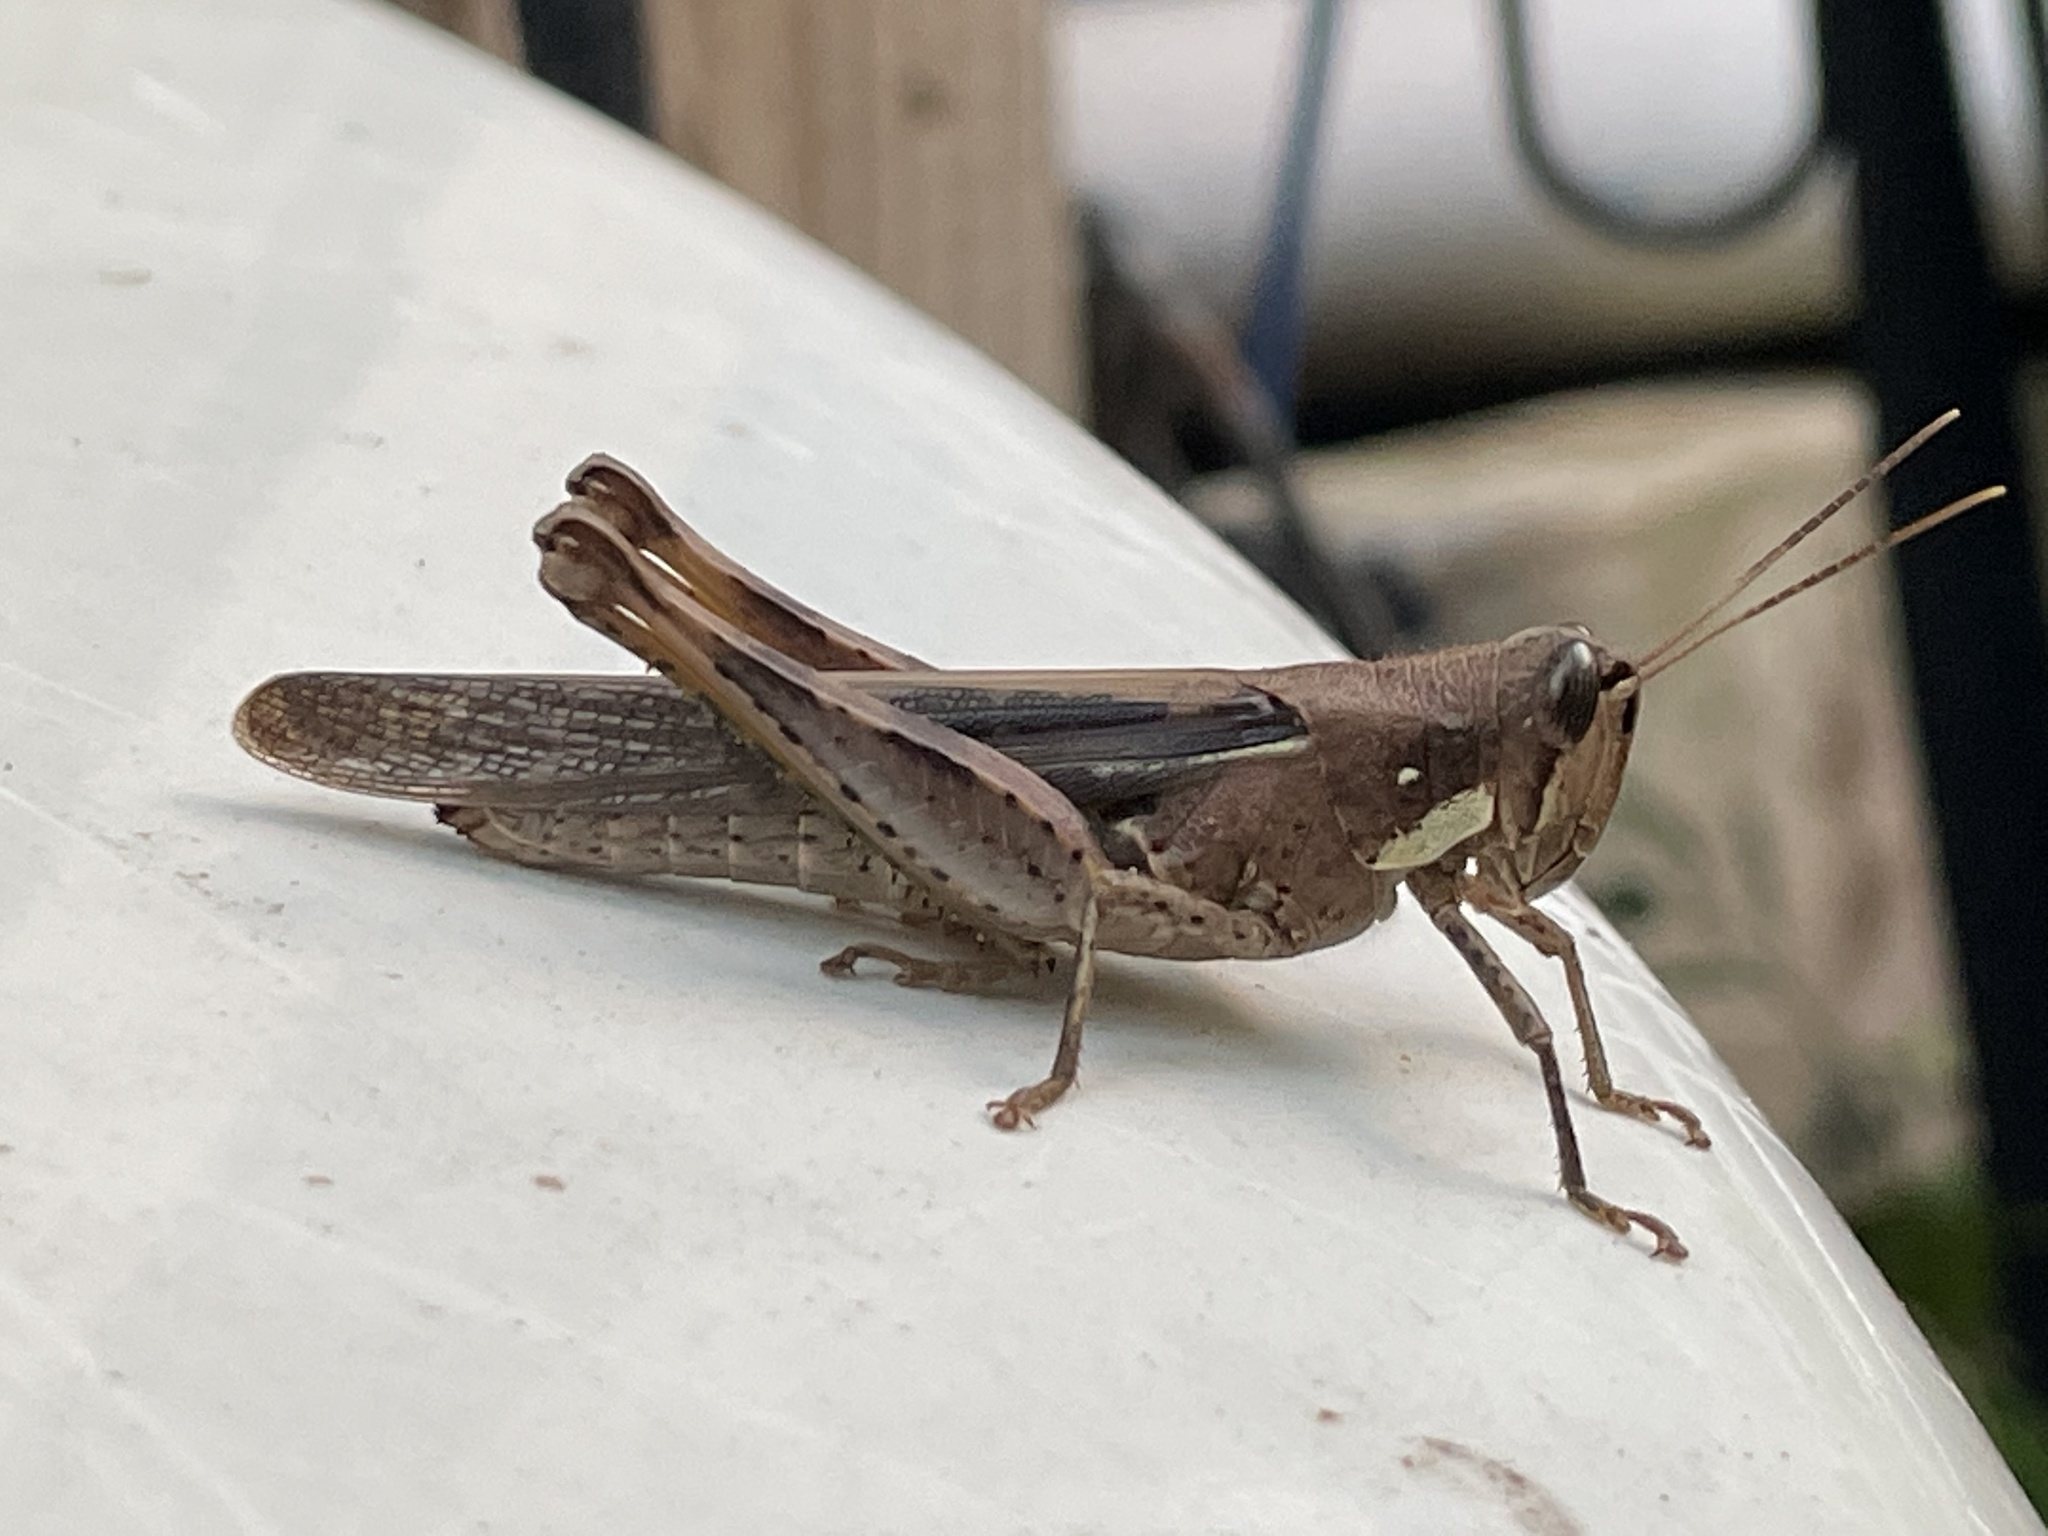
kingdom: Animalia
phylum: Arthropoda
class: Insecta
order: Orthoptera
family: Acrididae
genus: Schistocerca
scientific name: Schistocerca nitens
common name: Vagrant grasshopper
